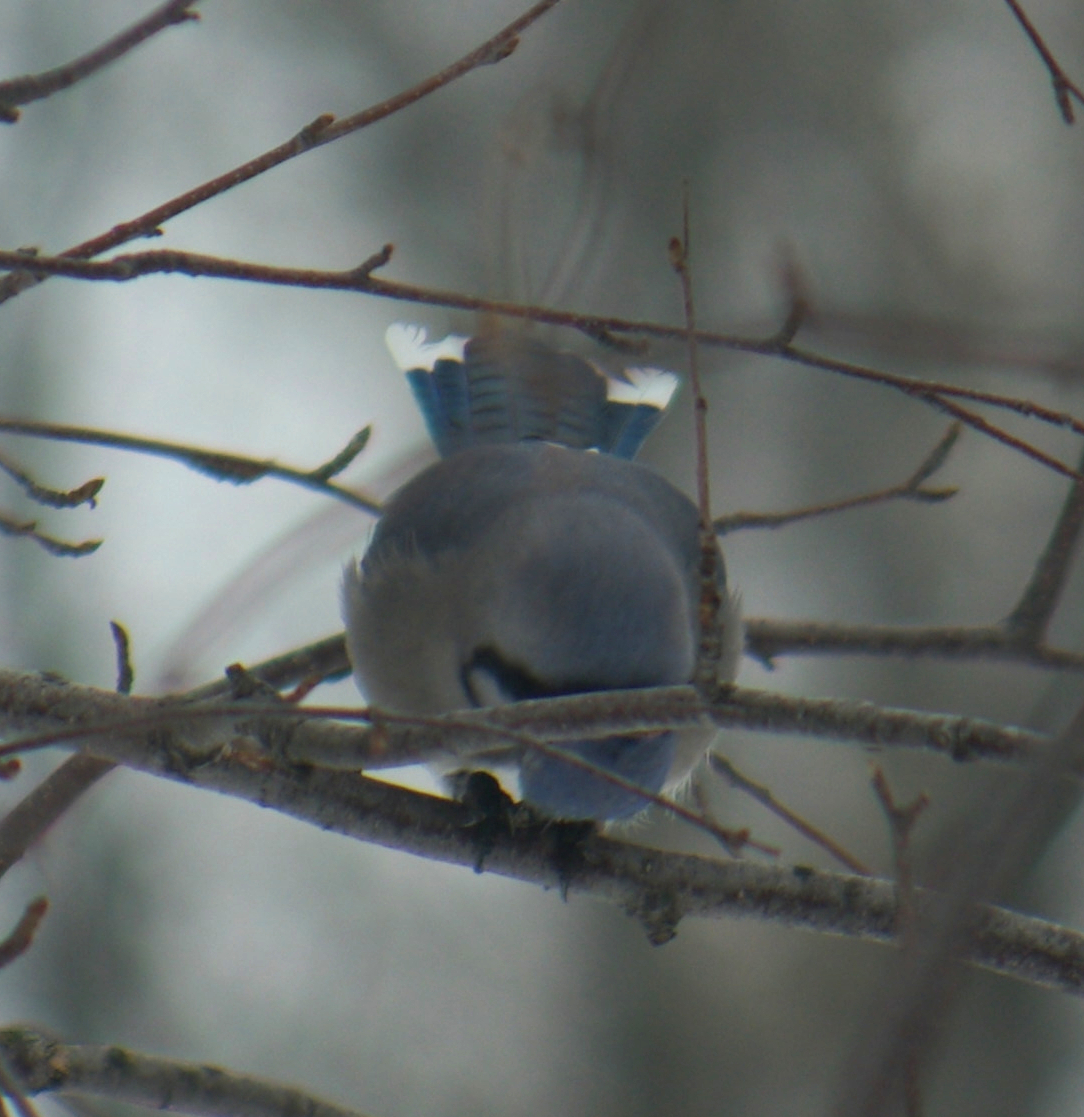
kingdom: Animalia
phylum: Chordata
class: Aves
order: Passeriformes
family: Corvidae
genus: Cyanocitta
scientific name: Cyanocitta cristata
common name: Blue jay
